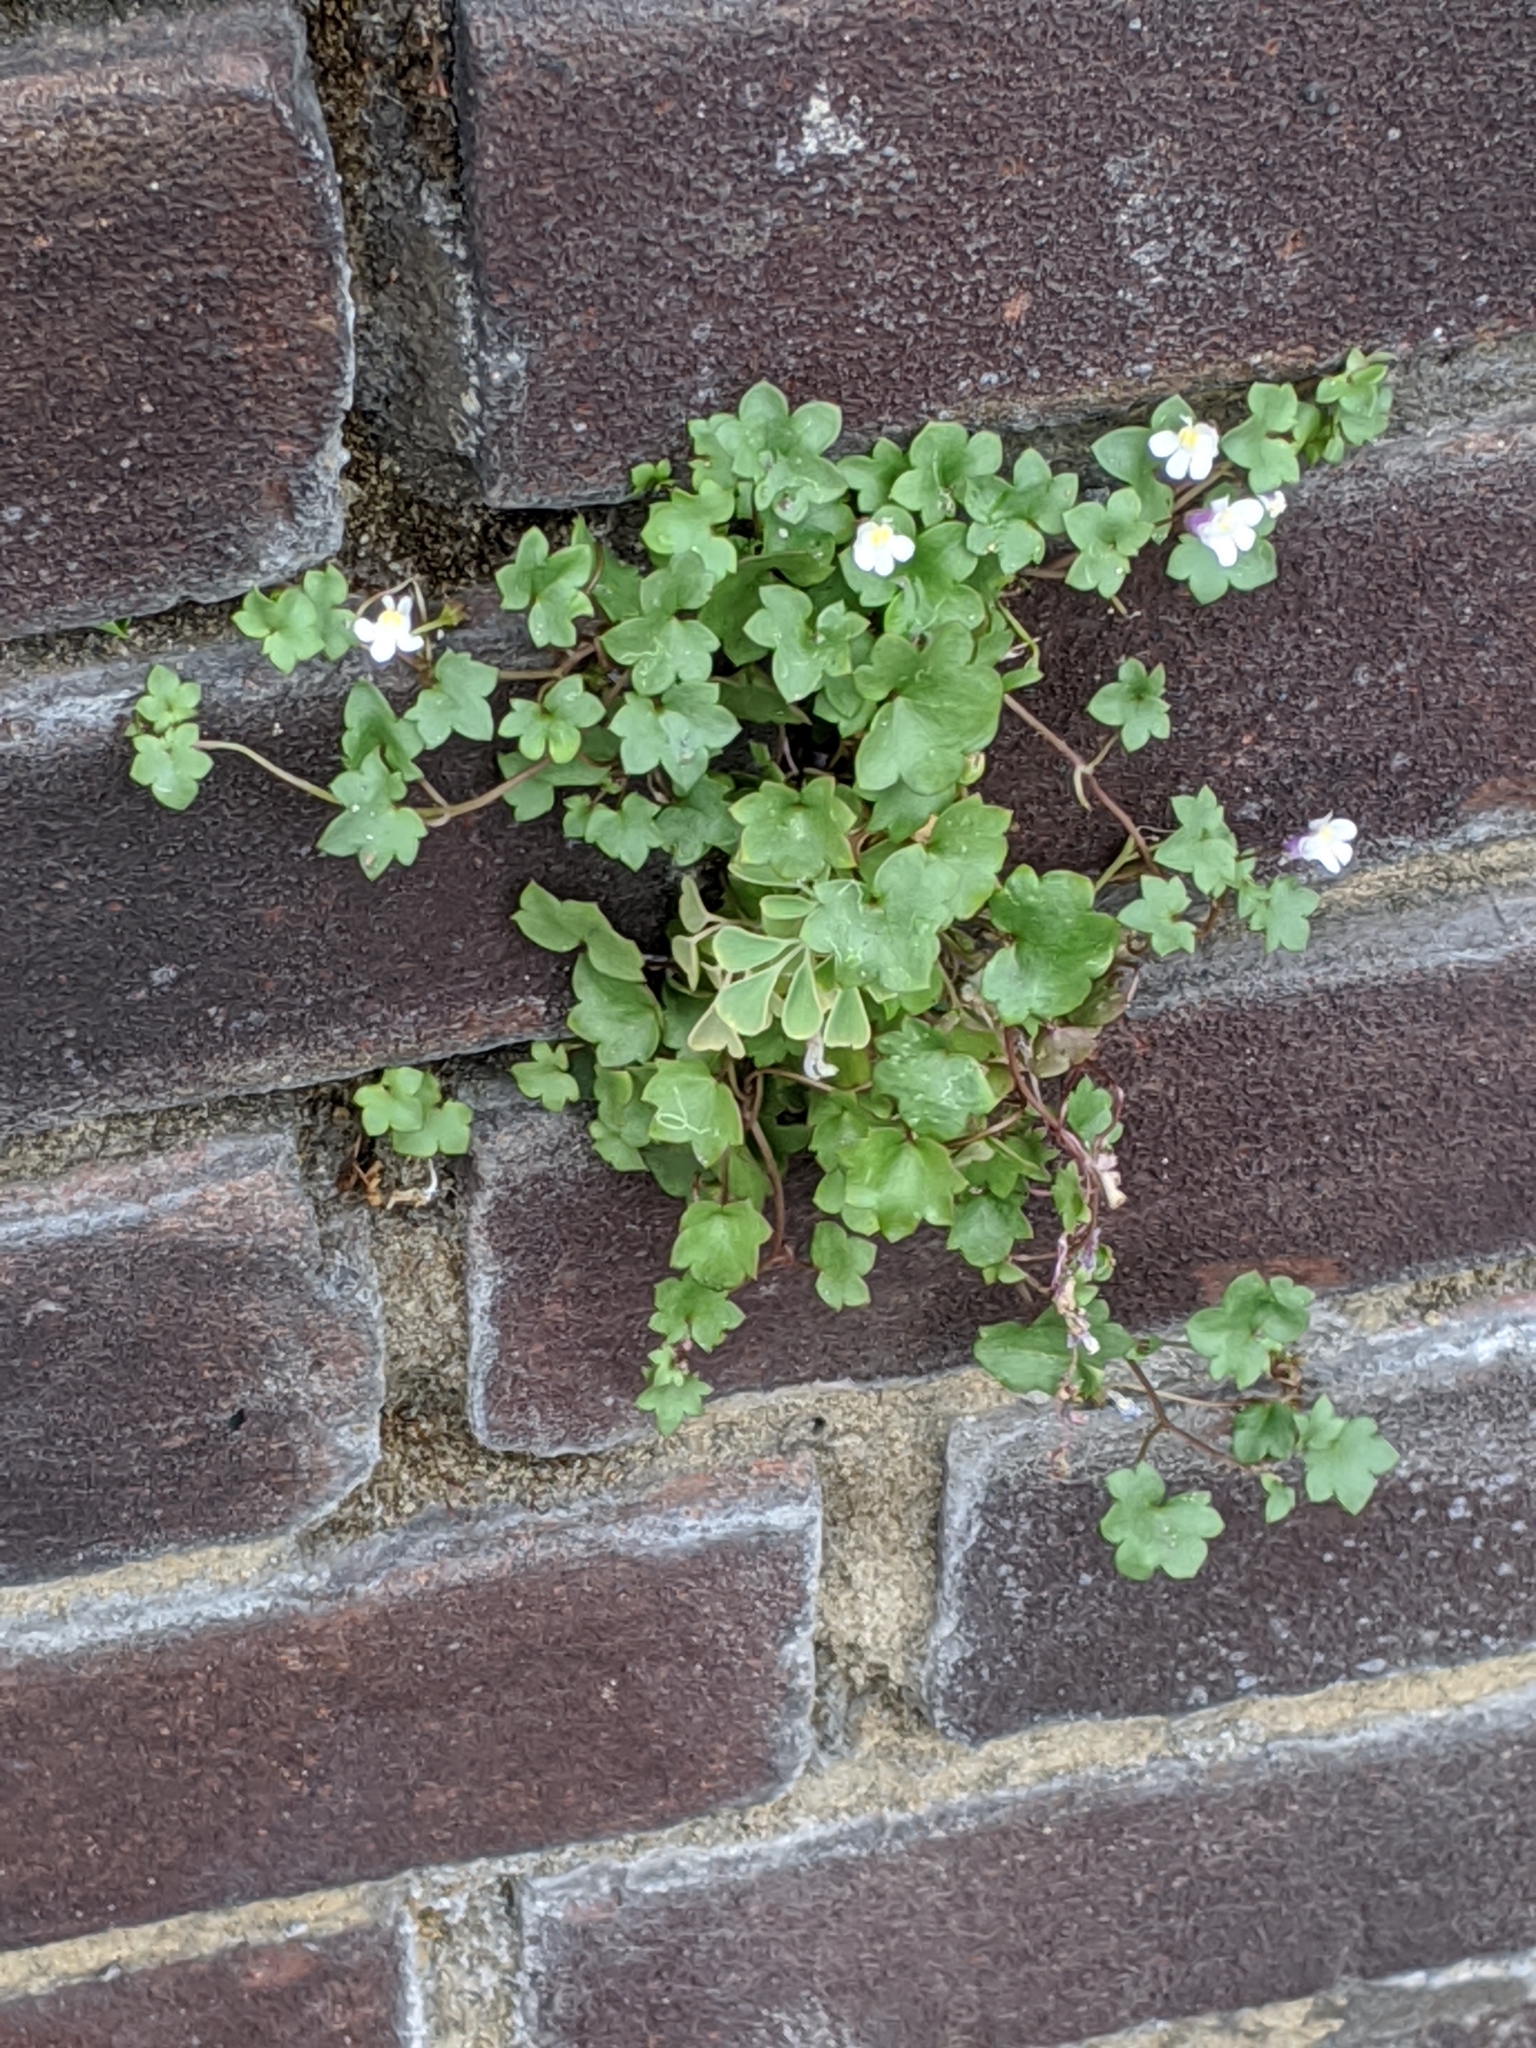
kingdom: Plantae
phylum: Tracheophyta
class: Magnoliopsida
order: Lamiales
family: Plantaginaceae
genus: Cymbalaria
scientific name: Cymbalaria muralis
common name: Ivy-leaved toadflax
